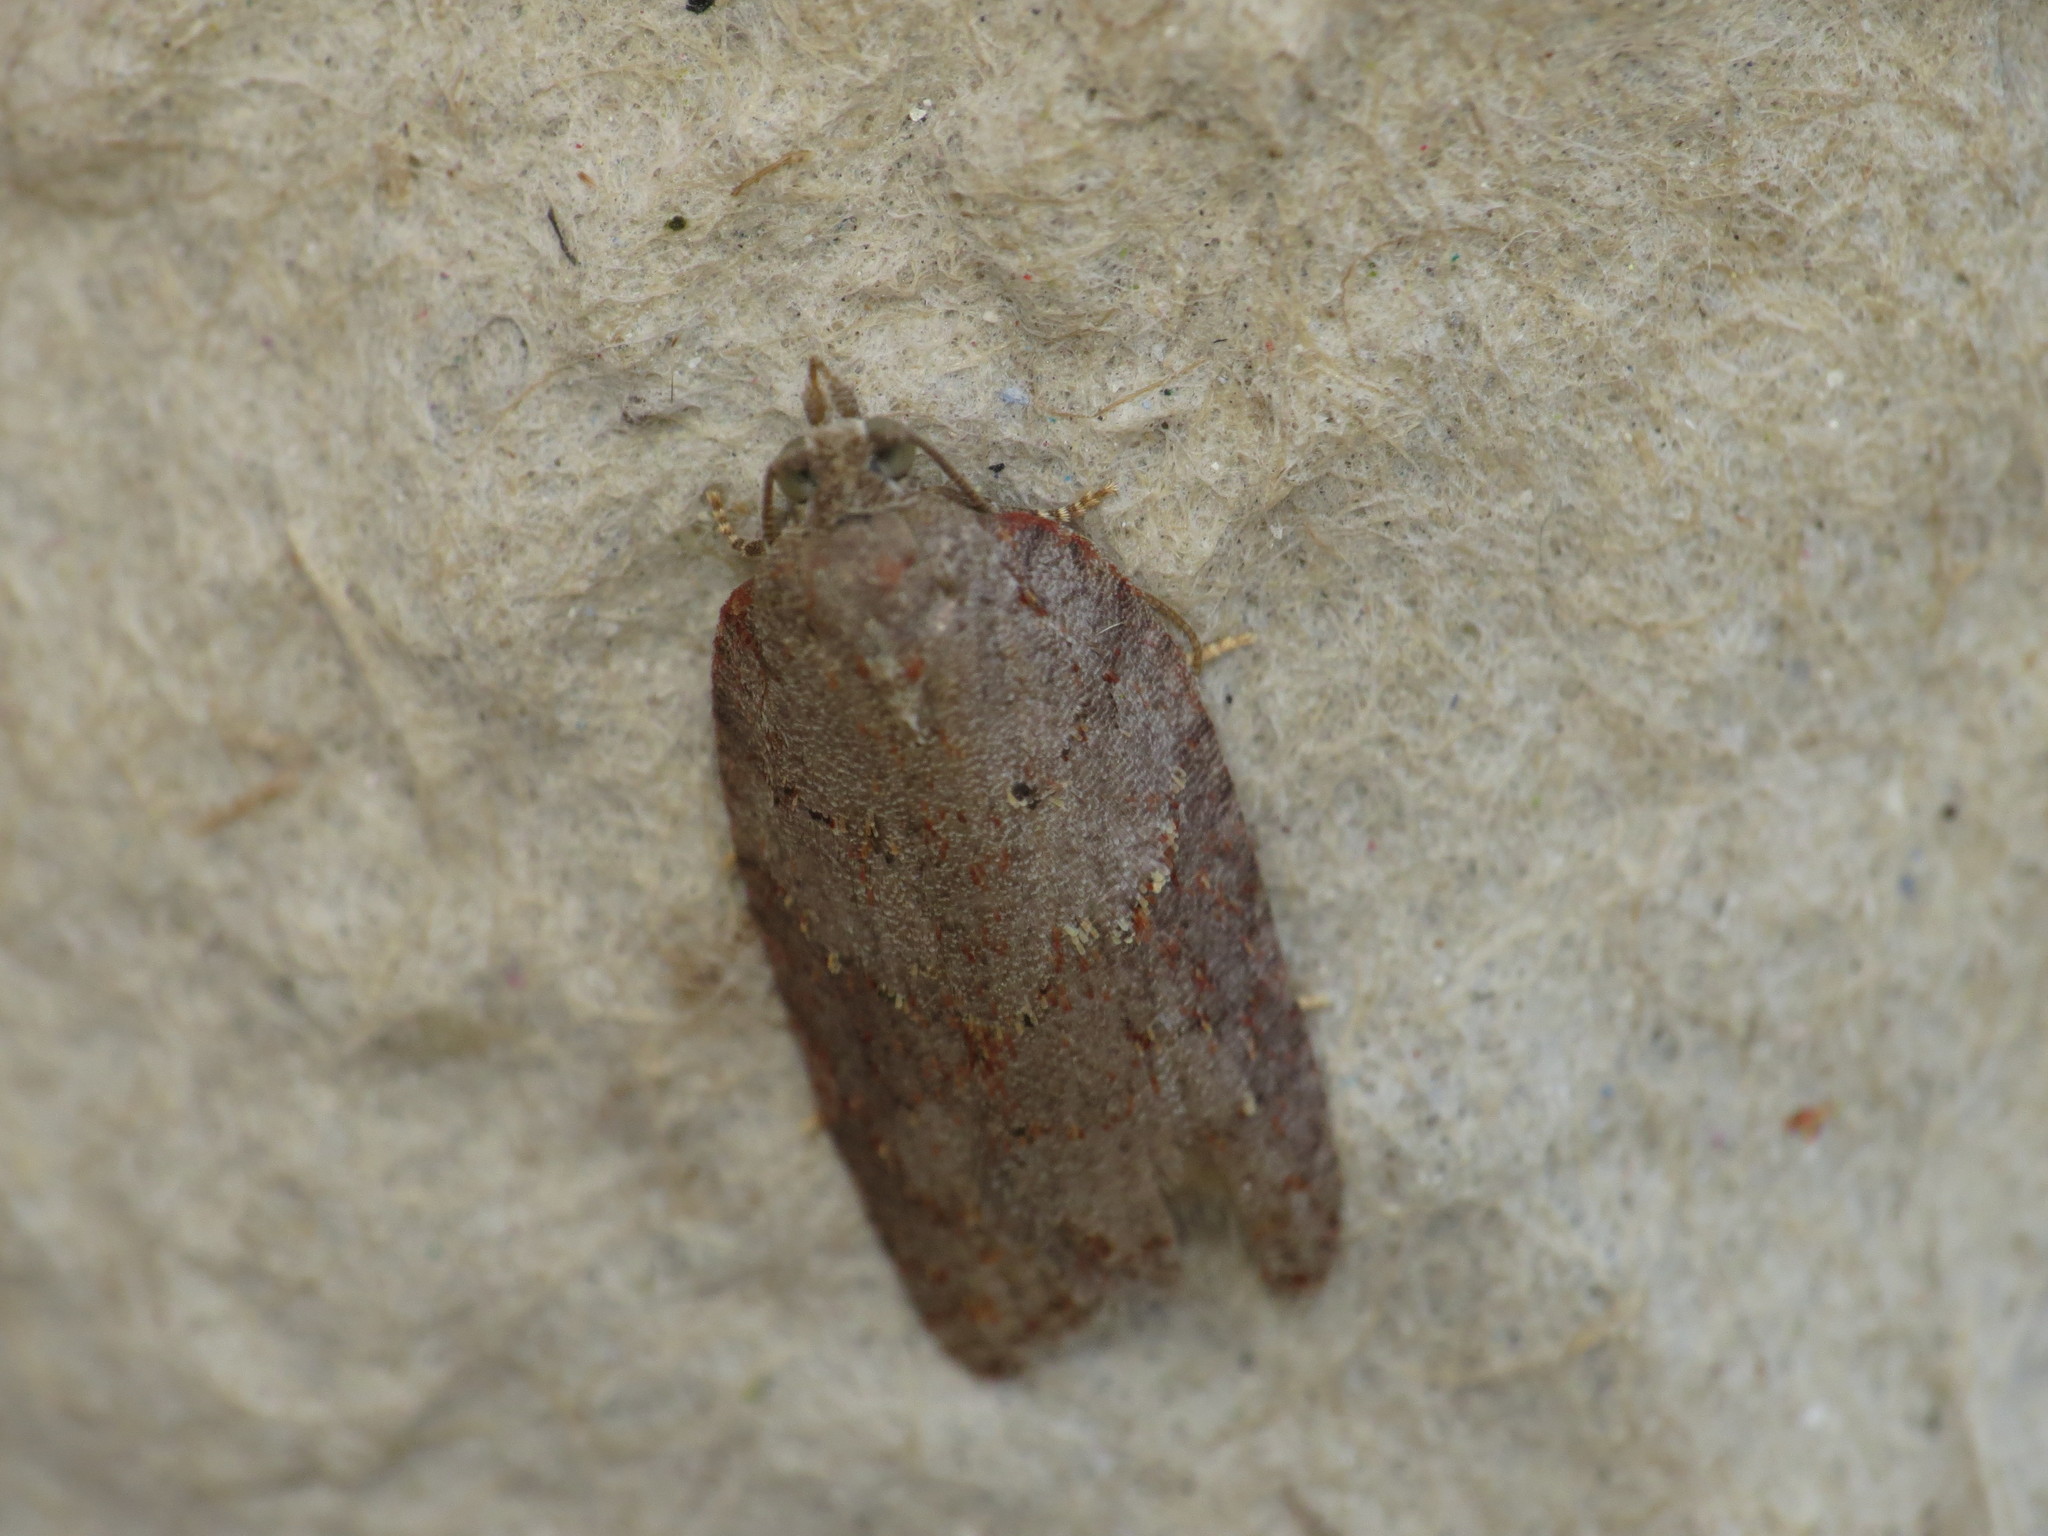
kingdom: Animalia
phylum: Arthropoda
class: Insecta
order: Lepidoptera
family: Tortricidae
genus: Acleris
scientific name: Acleris sparsana
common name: Ashy button
